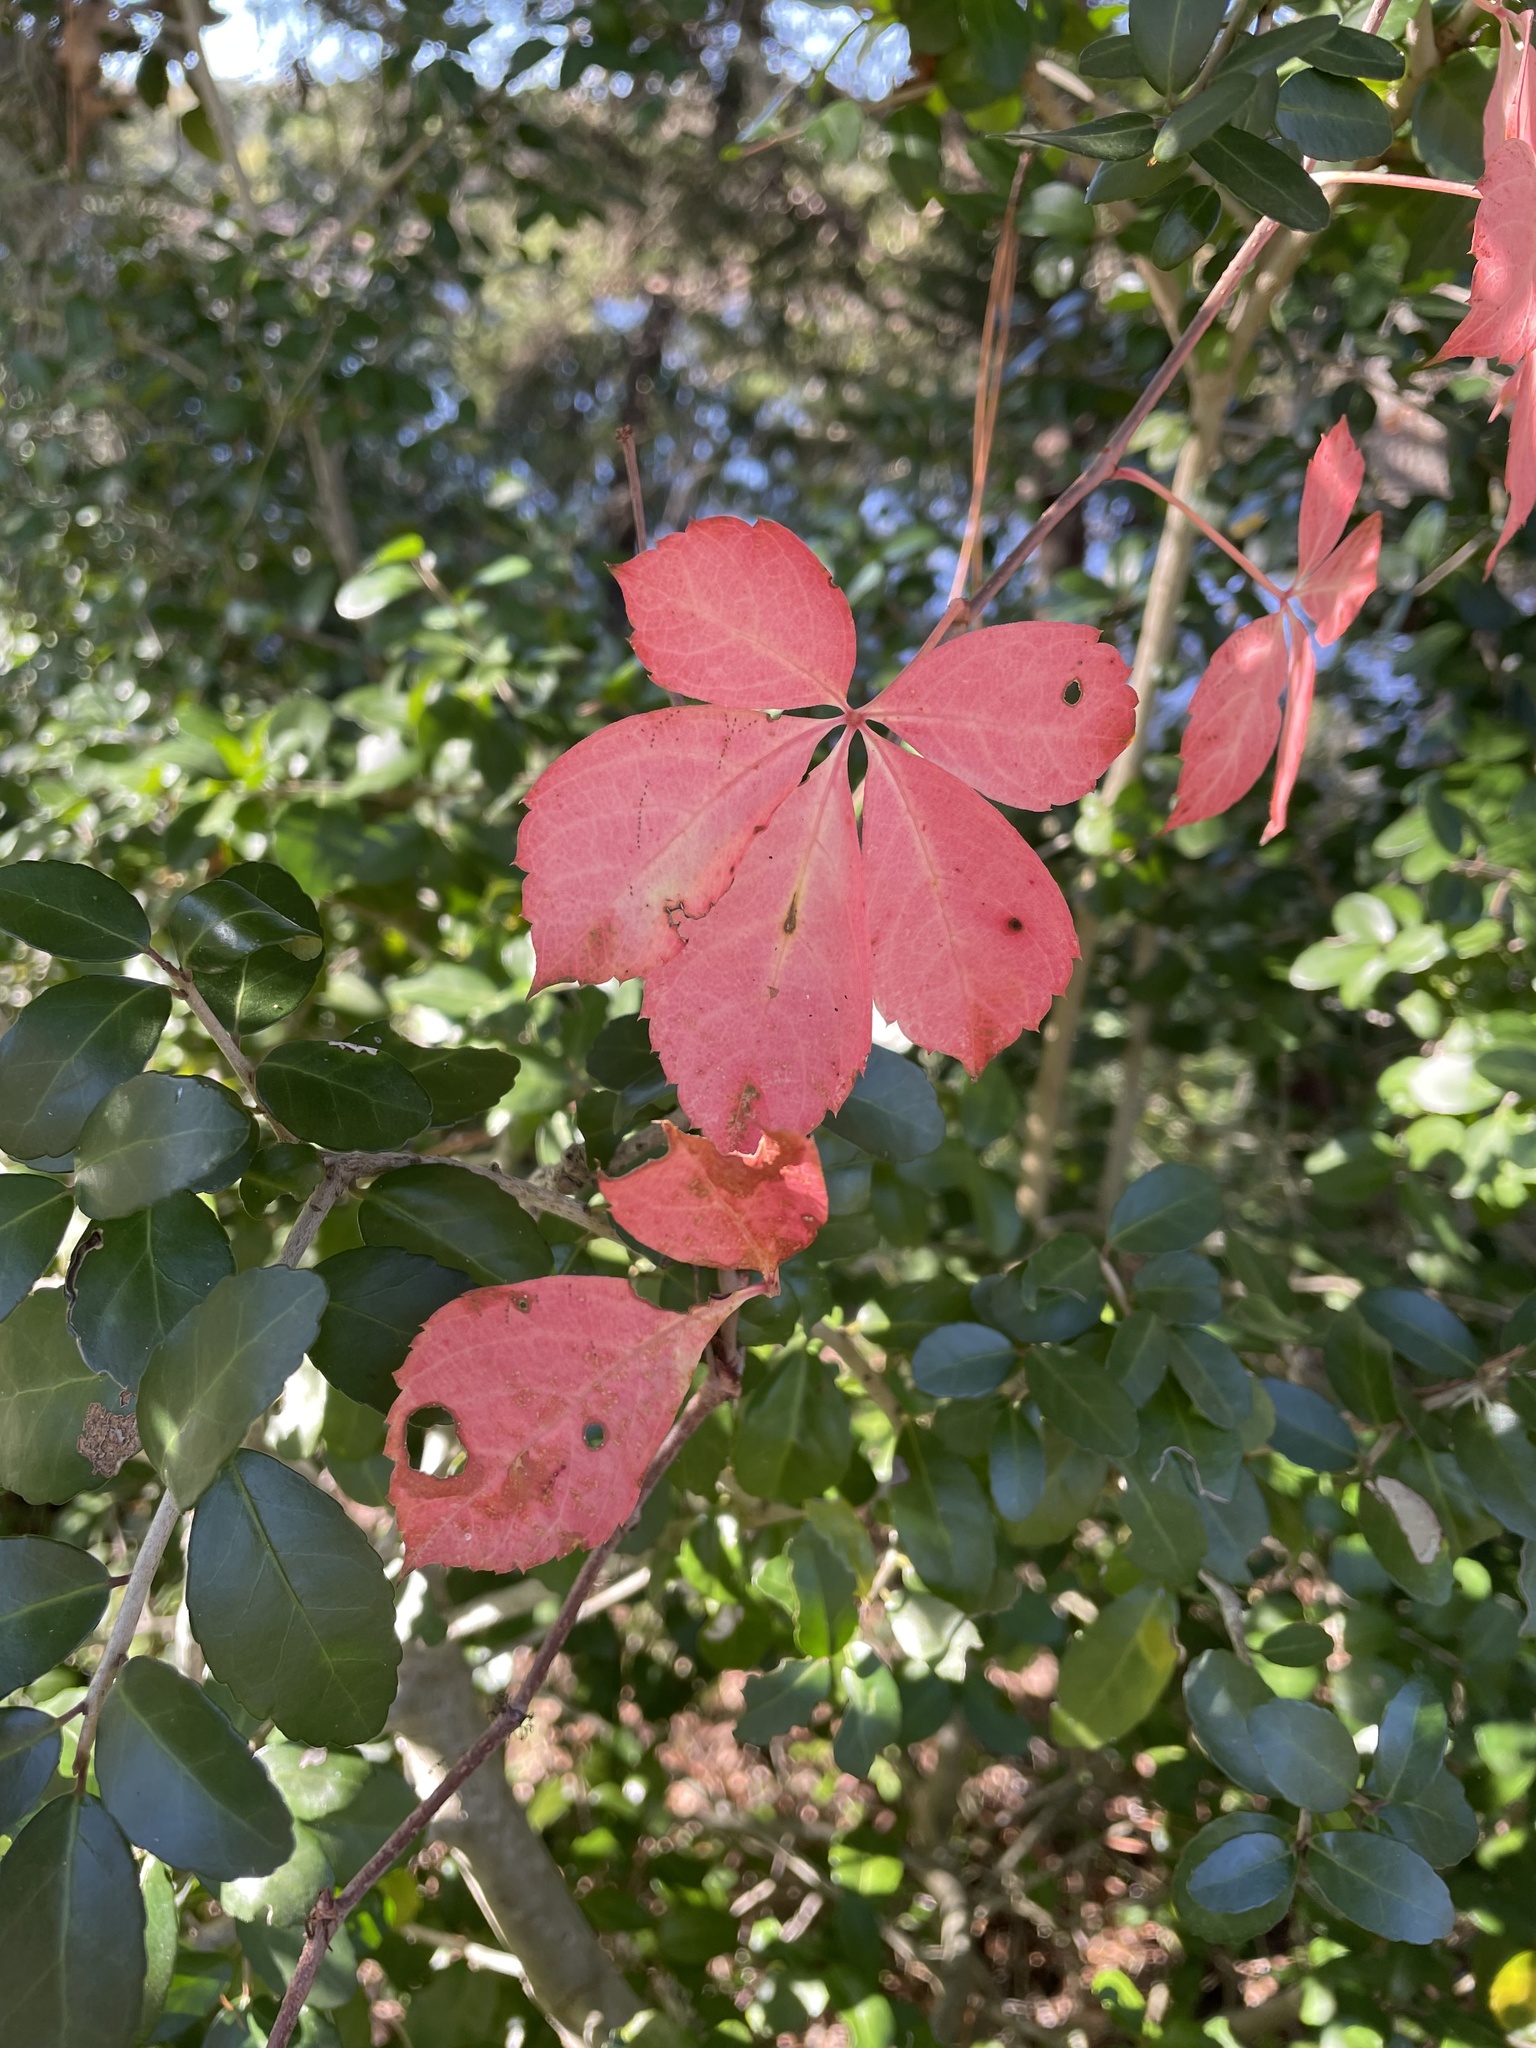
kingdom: Plantae
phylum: Tracheophyta
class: Magnoliopsida
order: Vitales
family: Vitaceae
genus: Parthenocissus
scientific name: Parthenocissus quinquefolia
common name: Virginia-creeper
